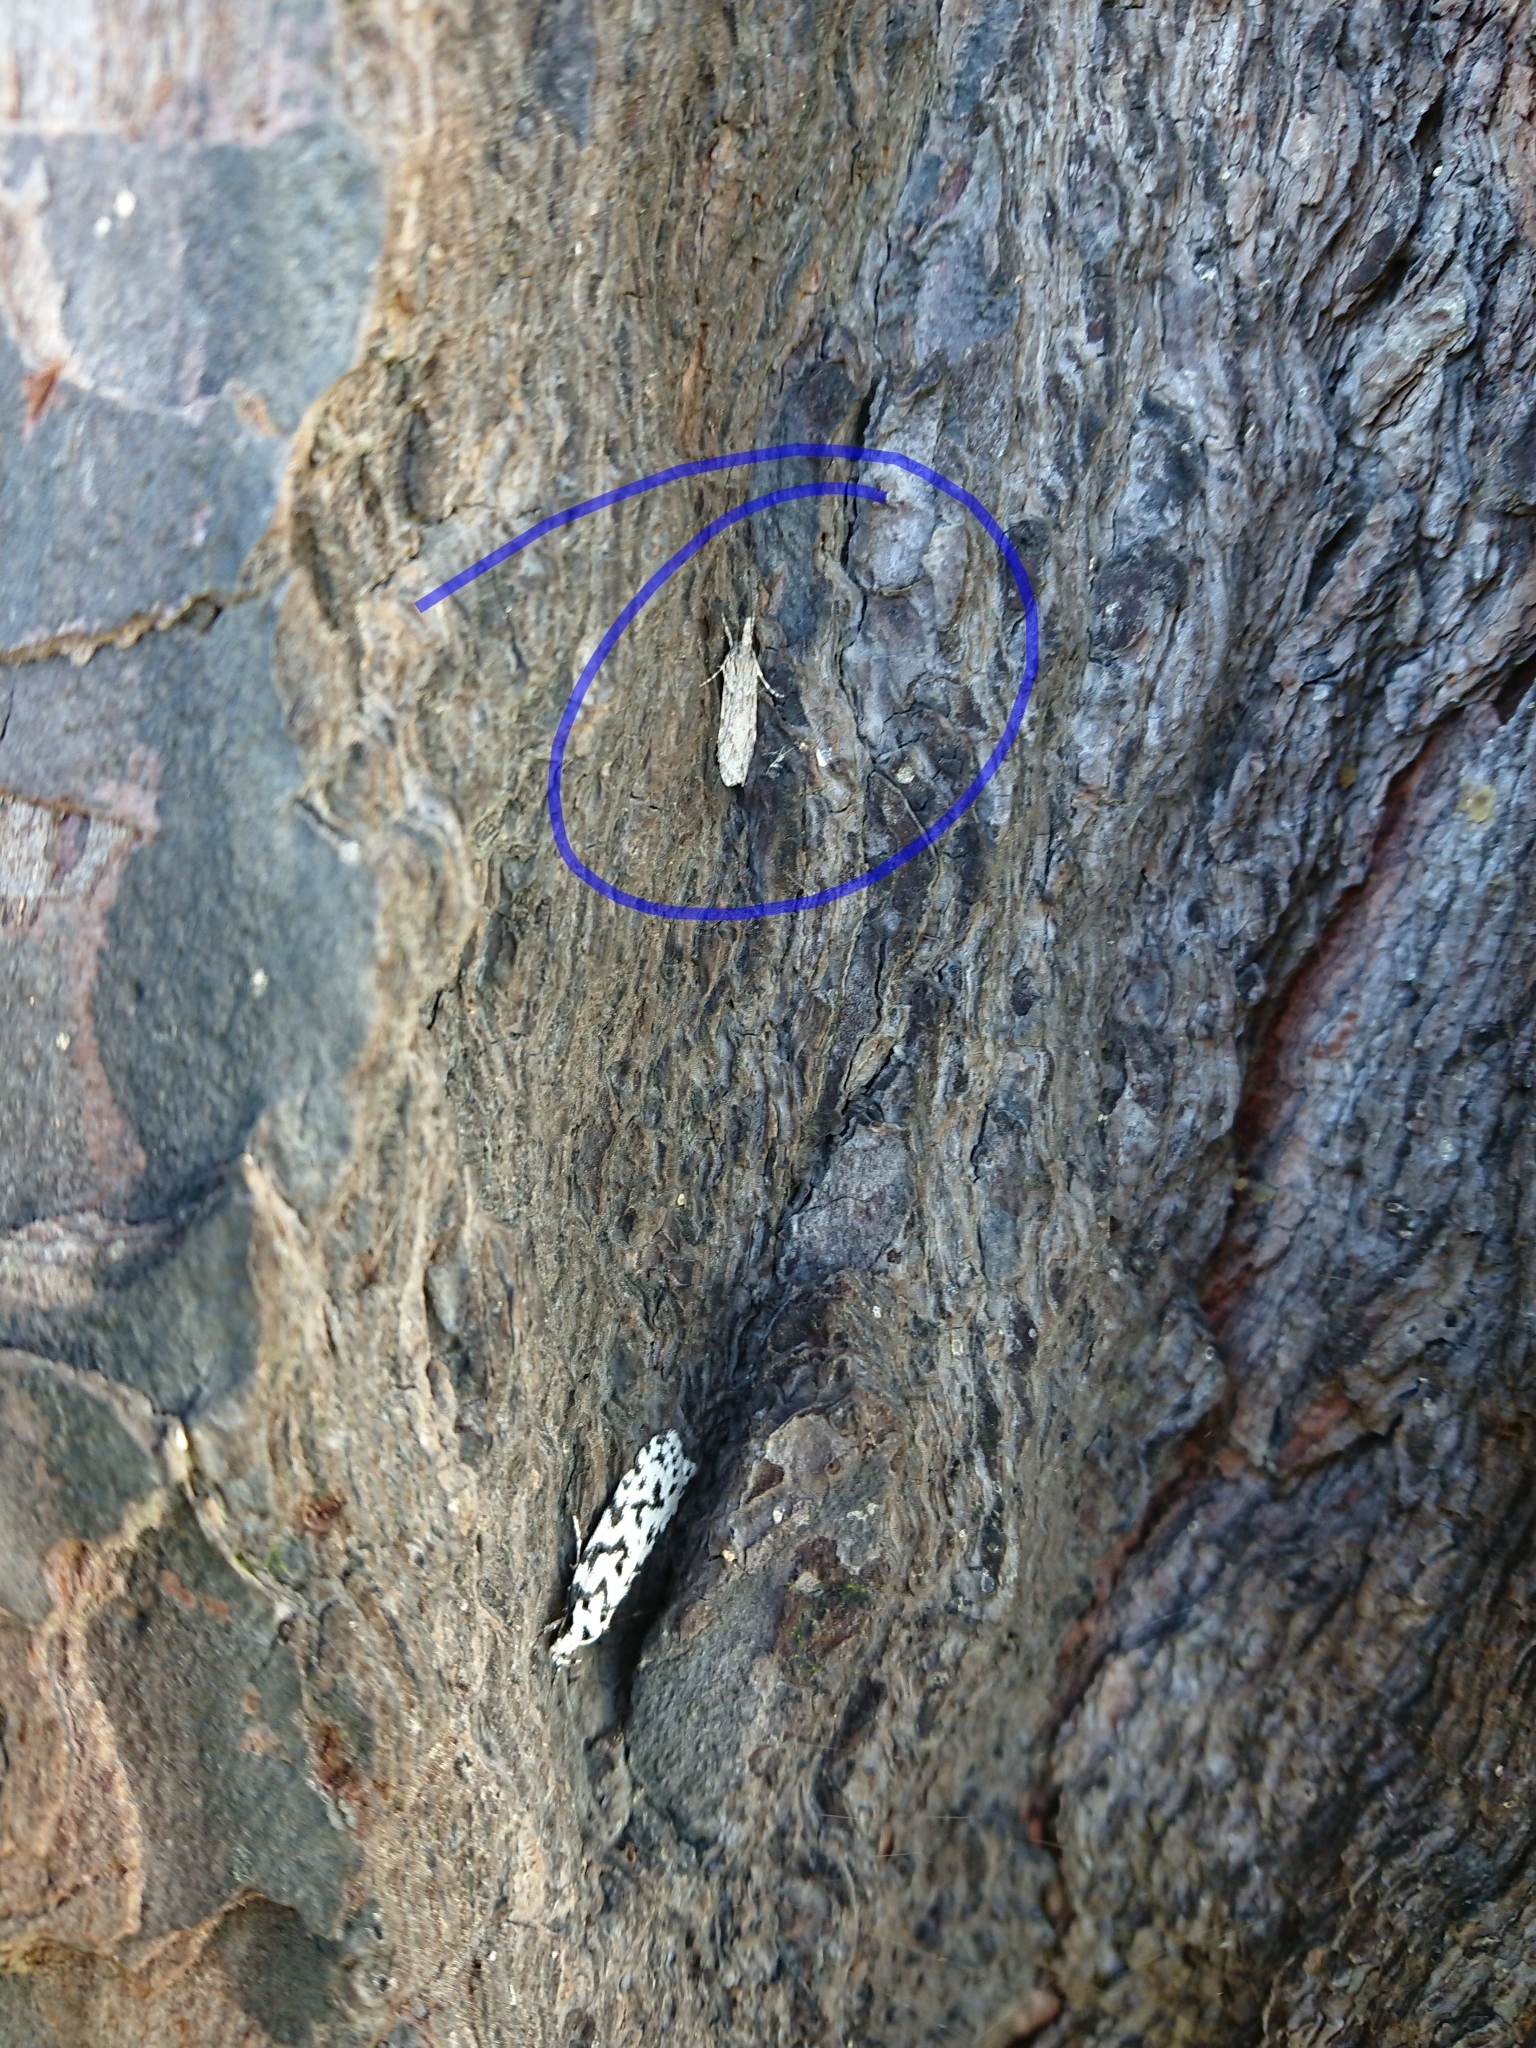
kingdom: Animalia
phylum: Arthropoda
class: Insecta
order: Lepidoptera
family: Crambidae
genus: Scoparia
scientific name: Scoparia chalicodes
